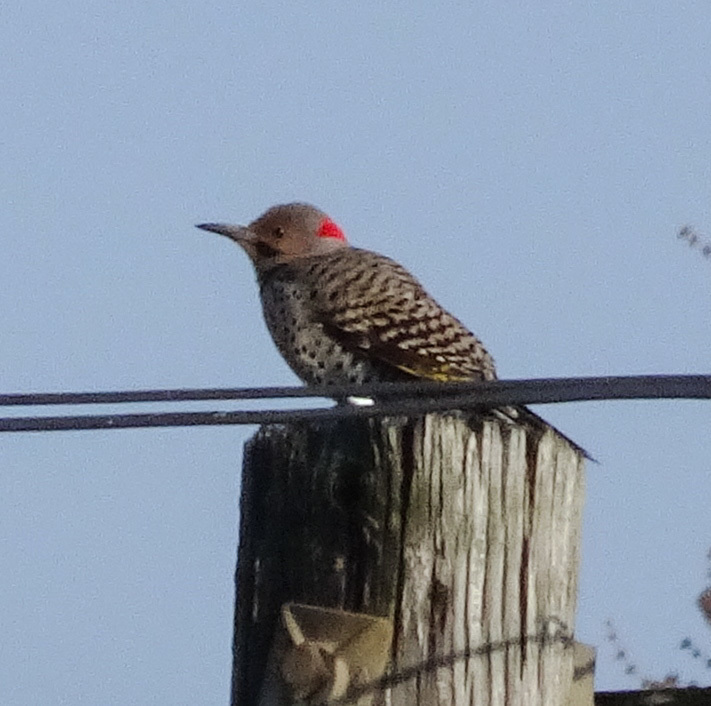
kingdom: Animalia
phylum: Chordata
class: Aves
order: Piciformes
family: Picidae
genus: Colaptes
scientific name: Colaptes auratus
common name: Northern flicker
